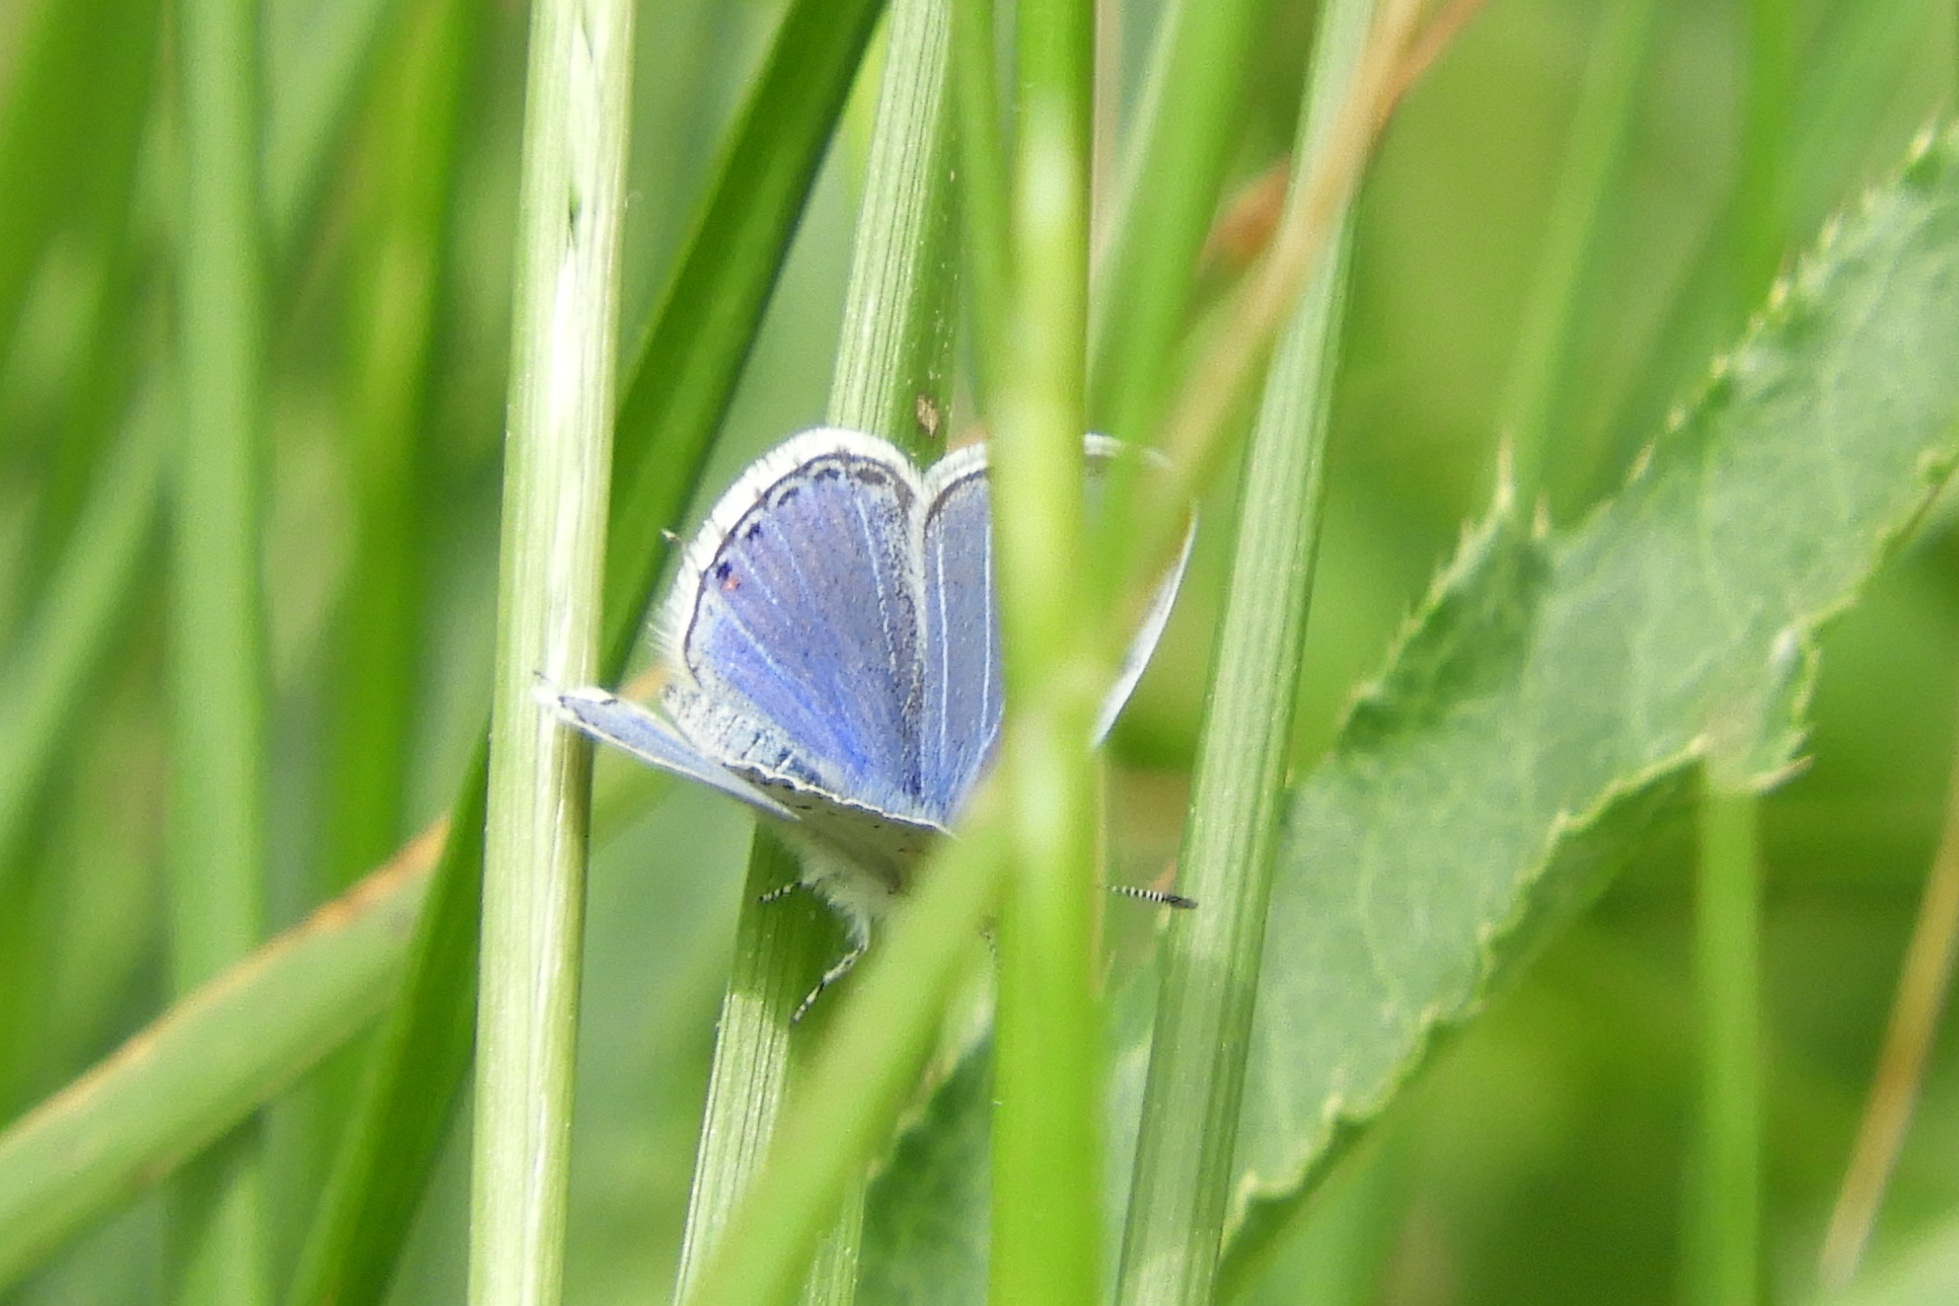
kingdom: Animalia
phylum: Arthropoda
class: Insecta
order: Lepidoptera
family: Lycaenidae
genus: Elkalyce
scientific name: Elkalyce comyntas
